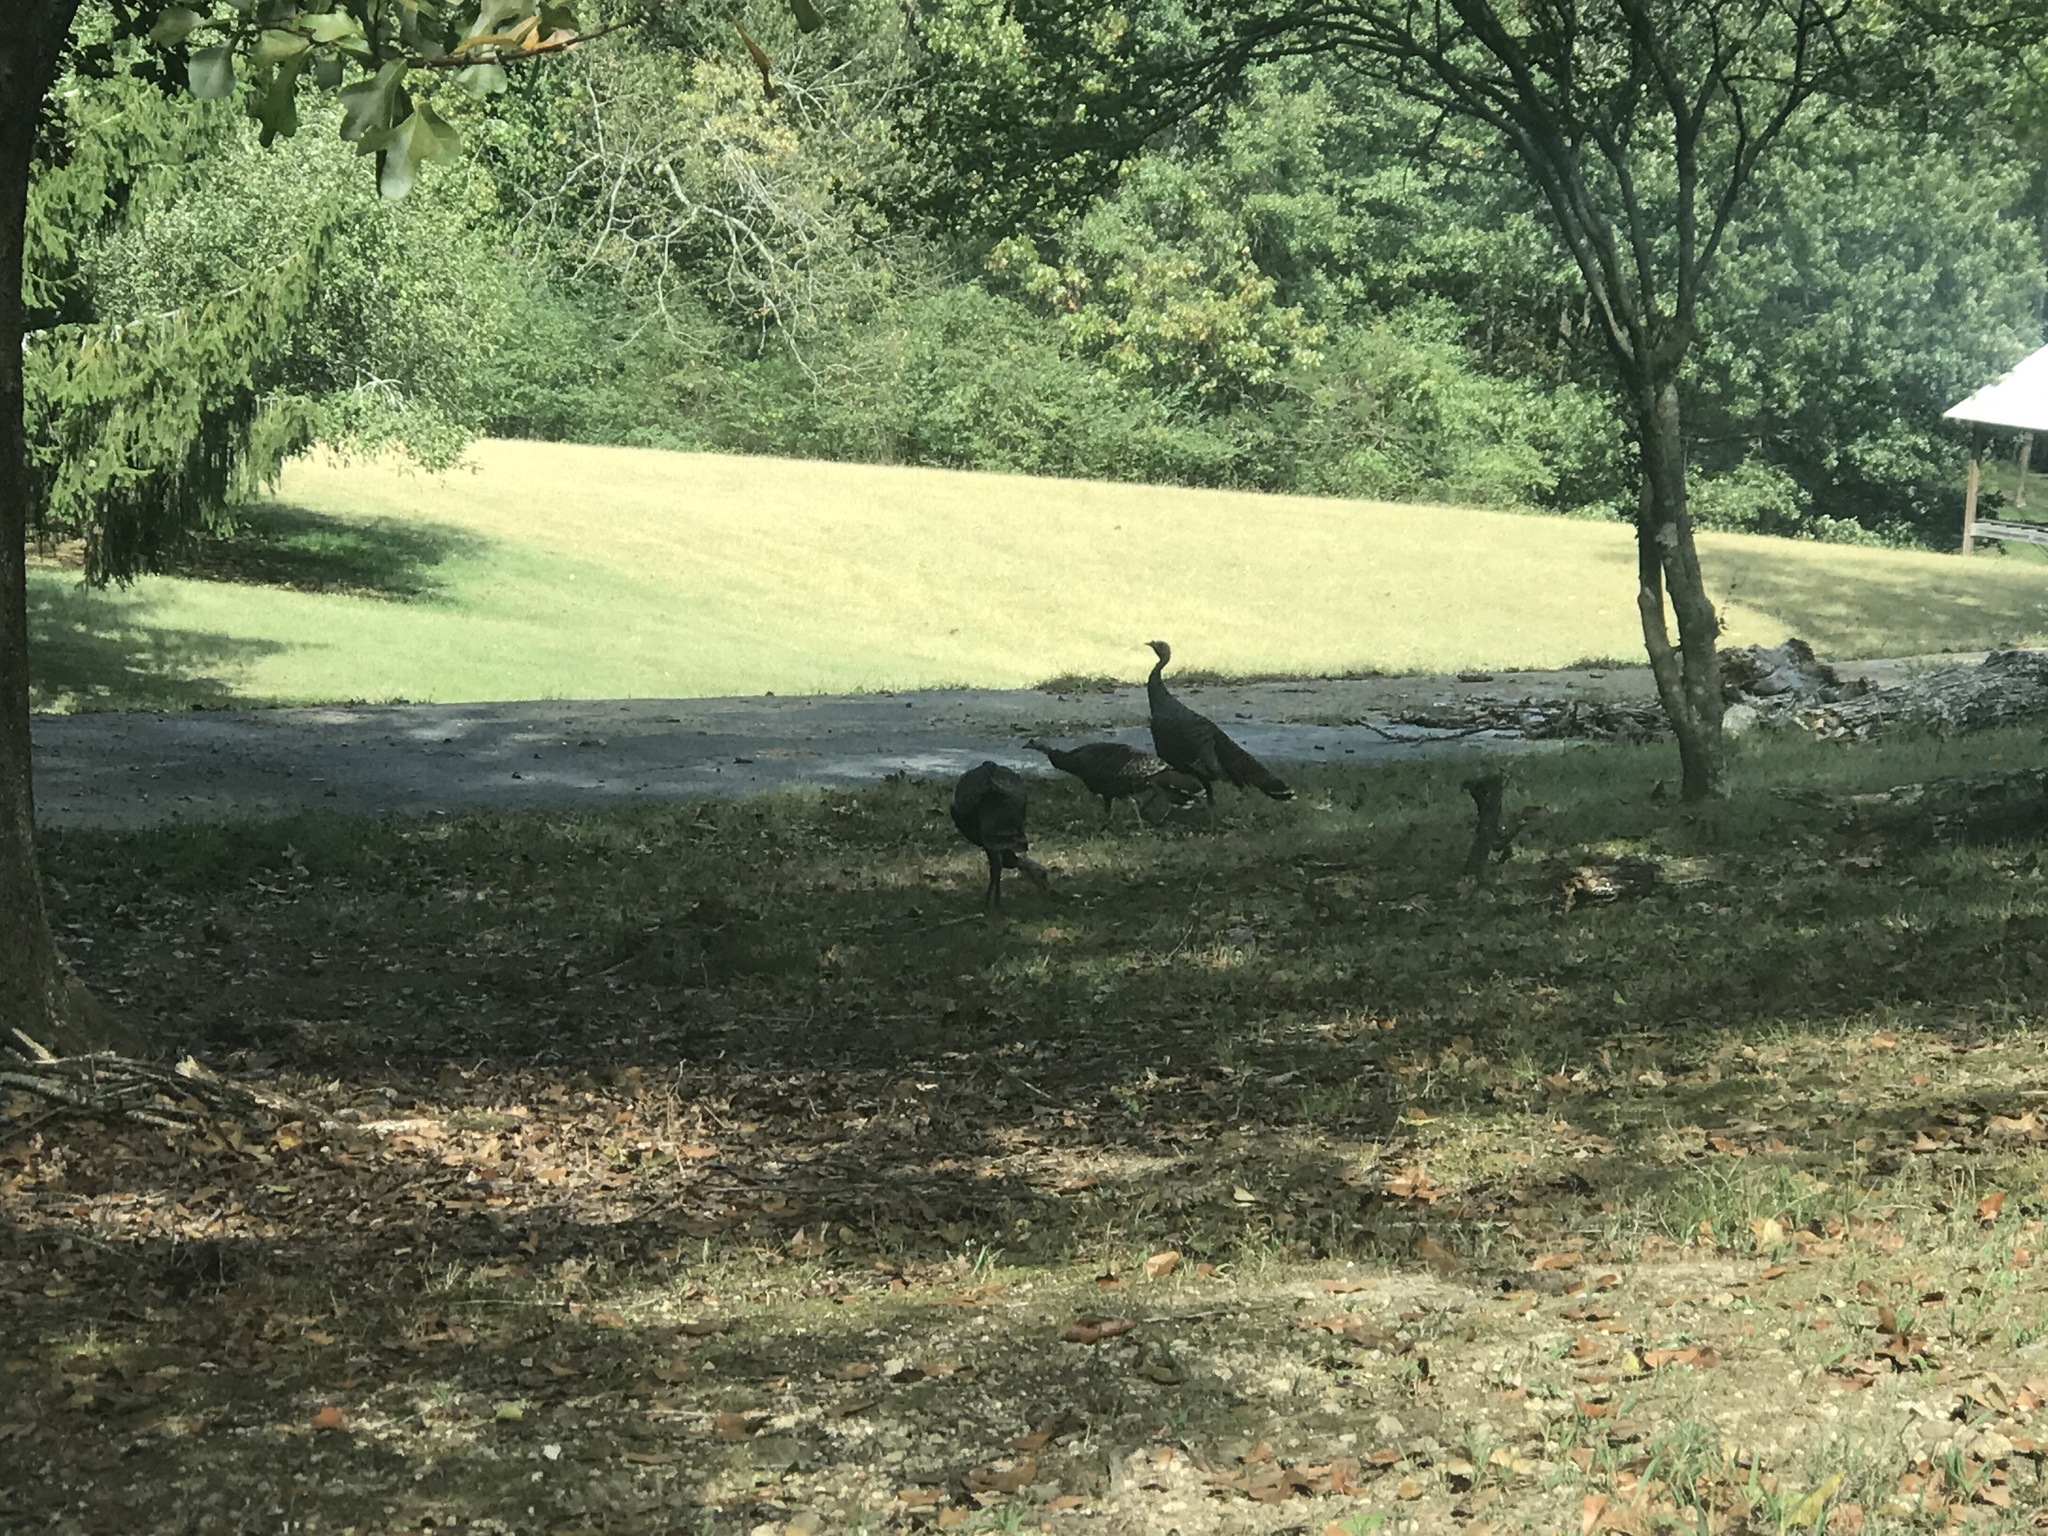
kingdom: Animalia
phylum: Chordata
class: Aves
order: Galliformes
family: Phasianidae
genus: Meleagris
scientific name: Meleagris gallopavo
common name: Wild turkey
